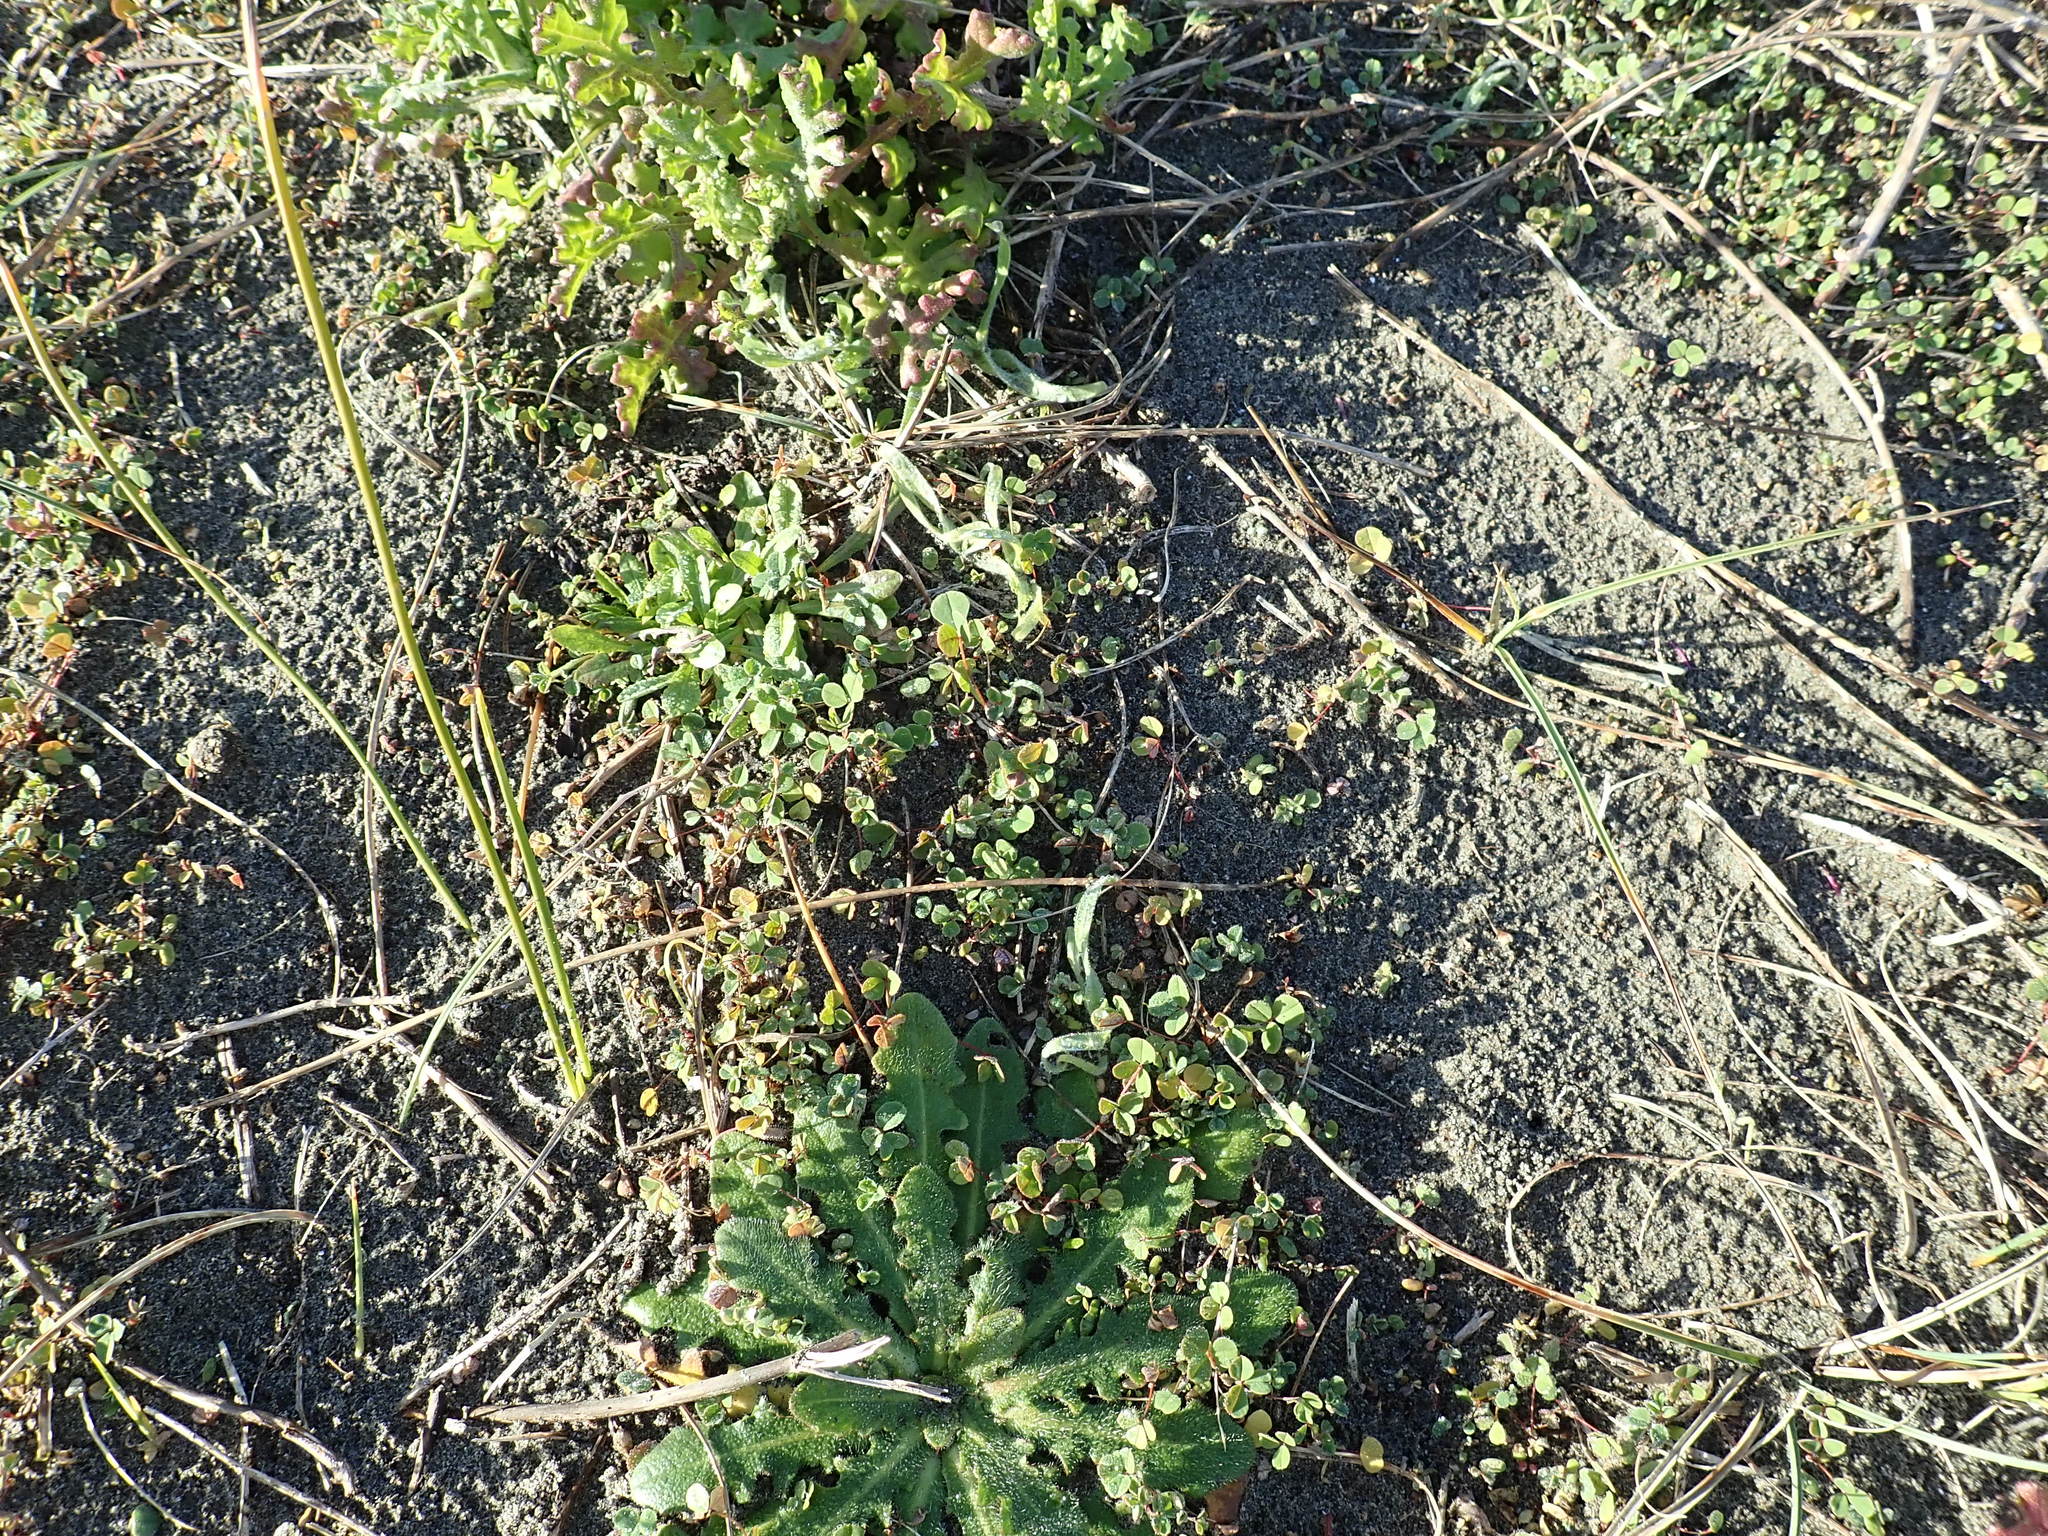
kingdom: Plantae
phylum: Tracheophyta
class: Magnoliopsida
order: Fabales
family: Fabaceae
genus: Melilotus
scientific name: Melilotus indicus
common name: Small melilot
